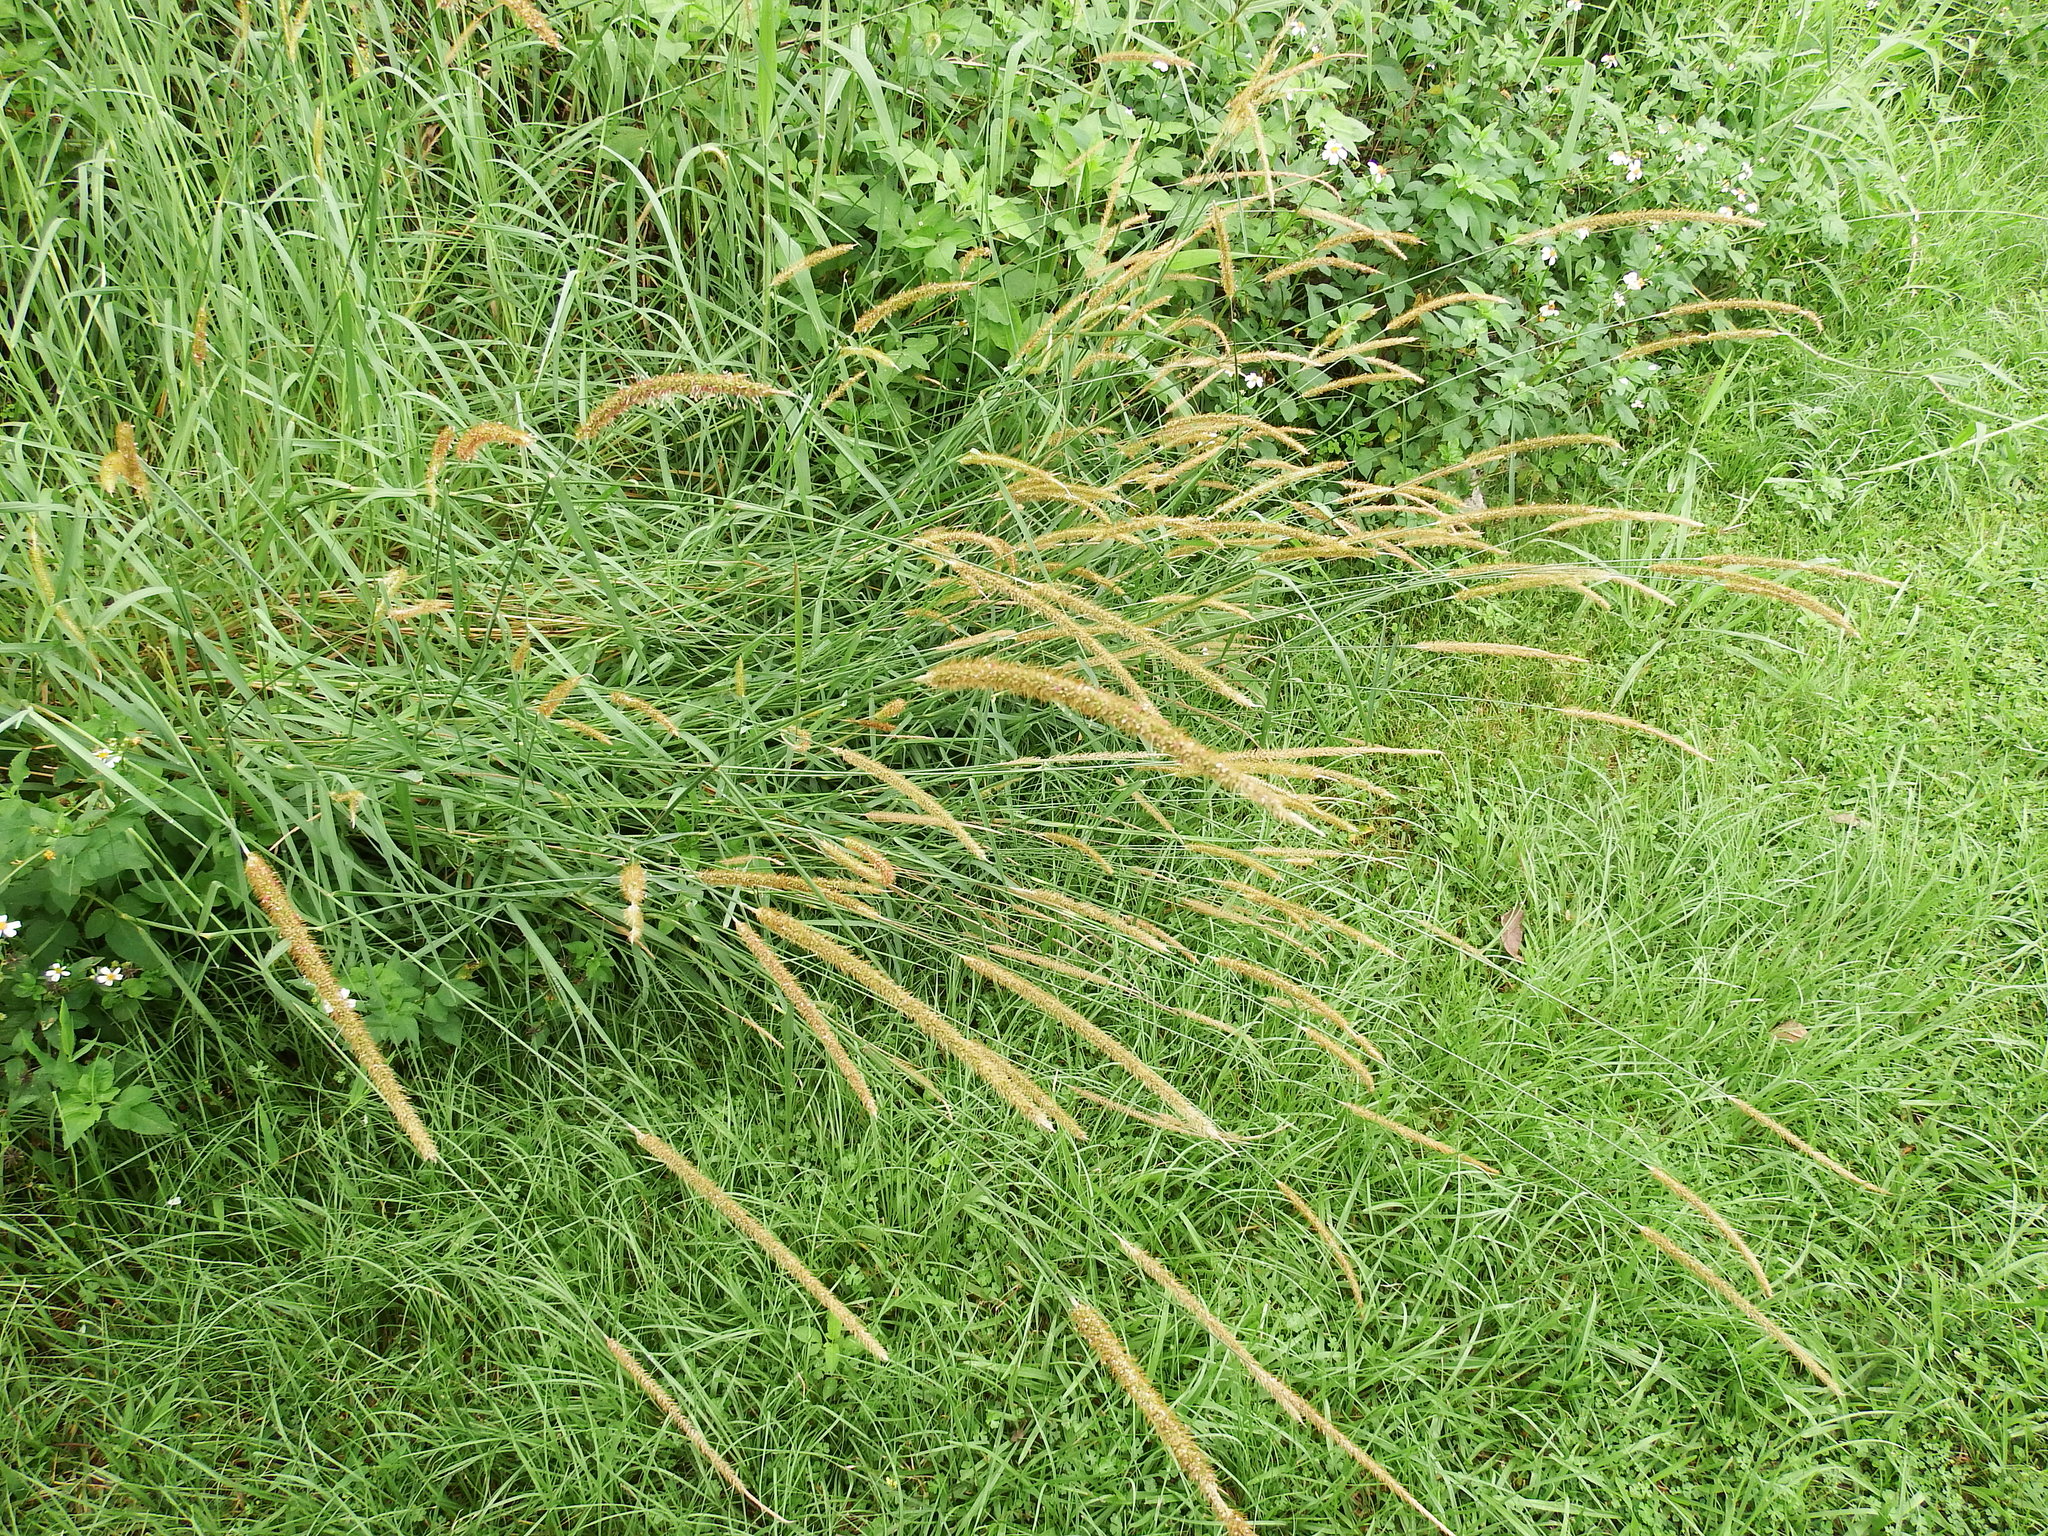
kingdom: Plantae
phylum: Tracheophyta
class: Liliopsida
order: Poales
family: Poaceae
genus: Setaria
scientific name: Setaria sphacelata
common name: African bristlegrass
